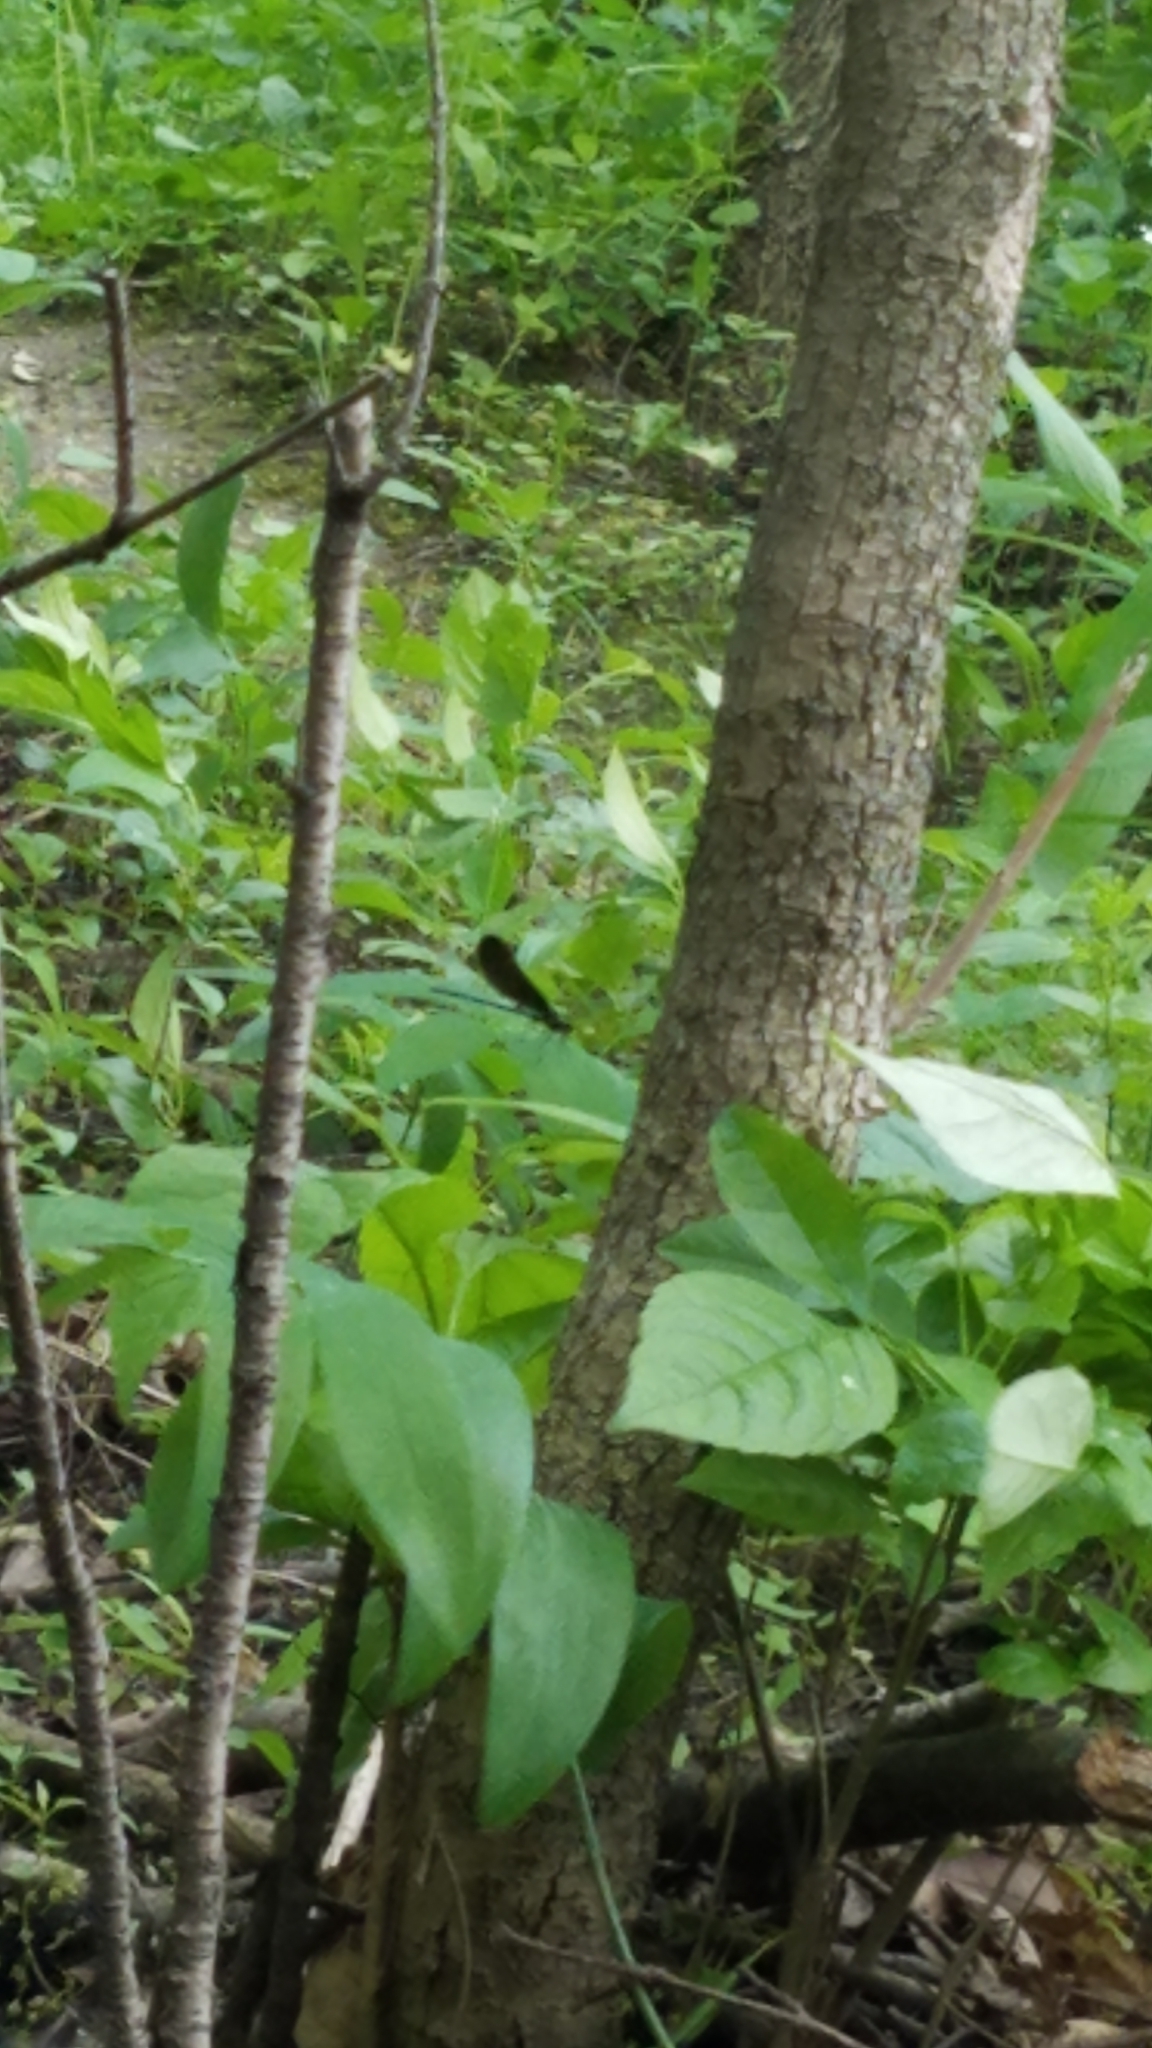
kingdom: Animalia
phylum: Arthropoda
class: Insecta
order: Odonata
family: Calopterygidae
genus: Calopteryx
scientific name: Calopteryx maculata
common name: Ebony jewelwing
